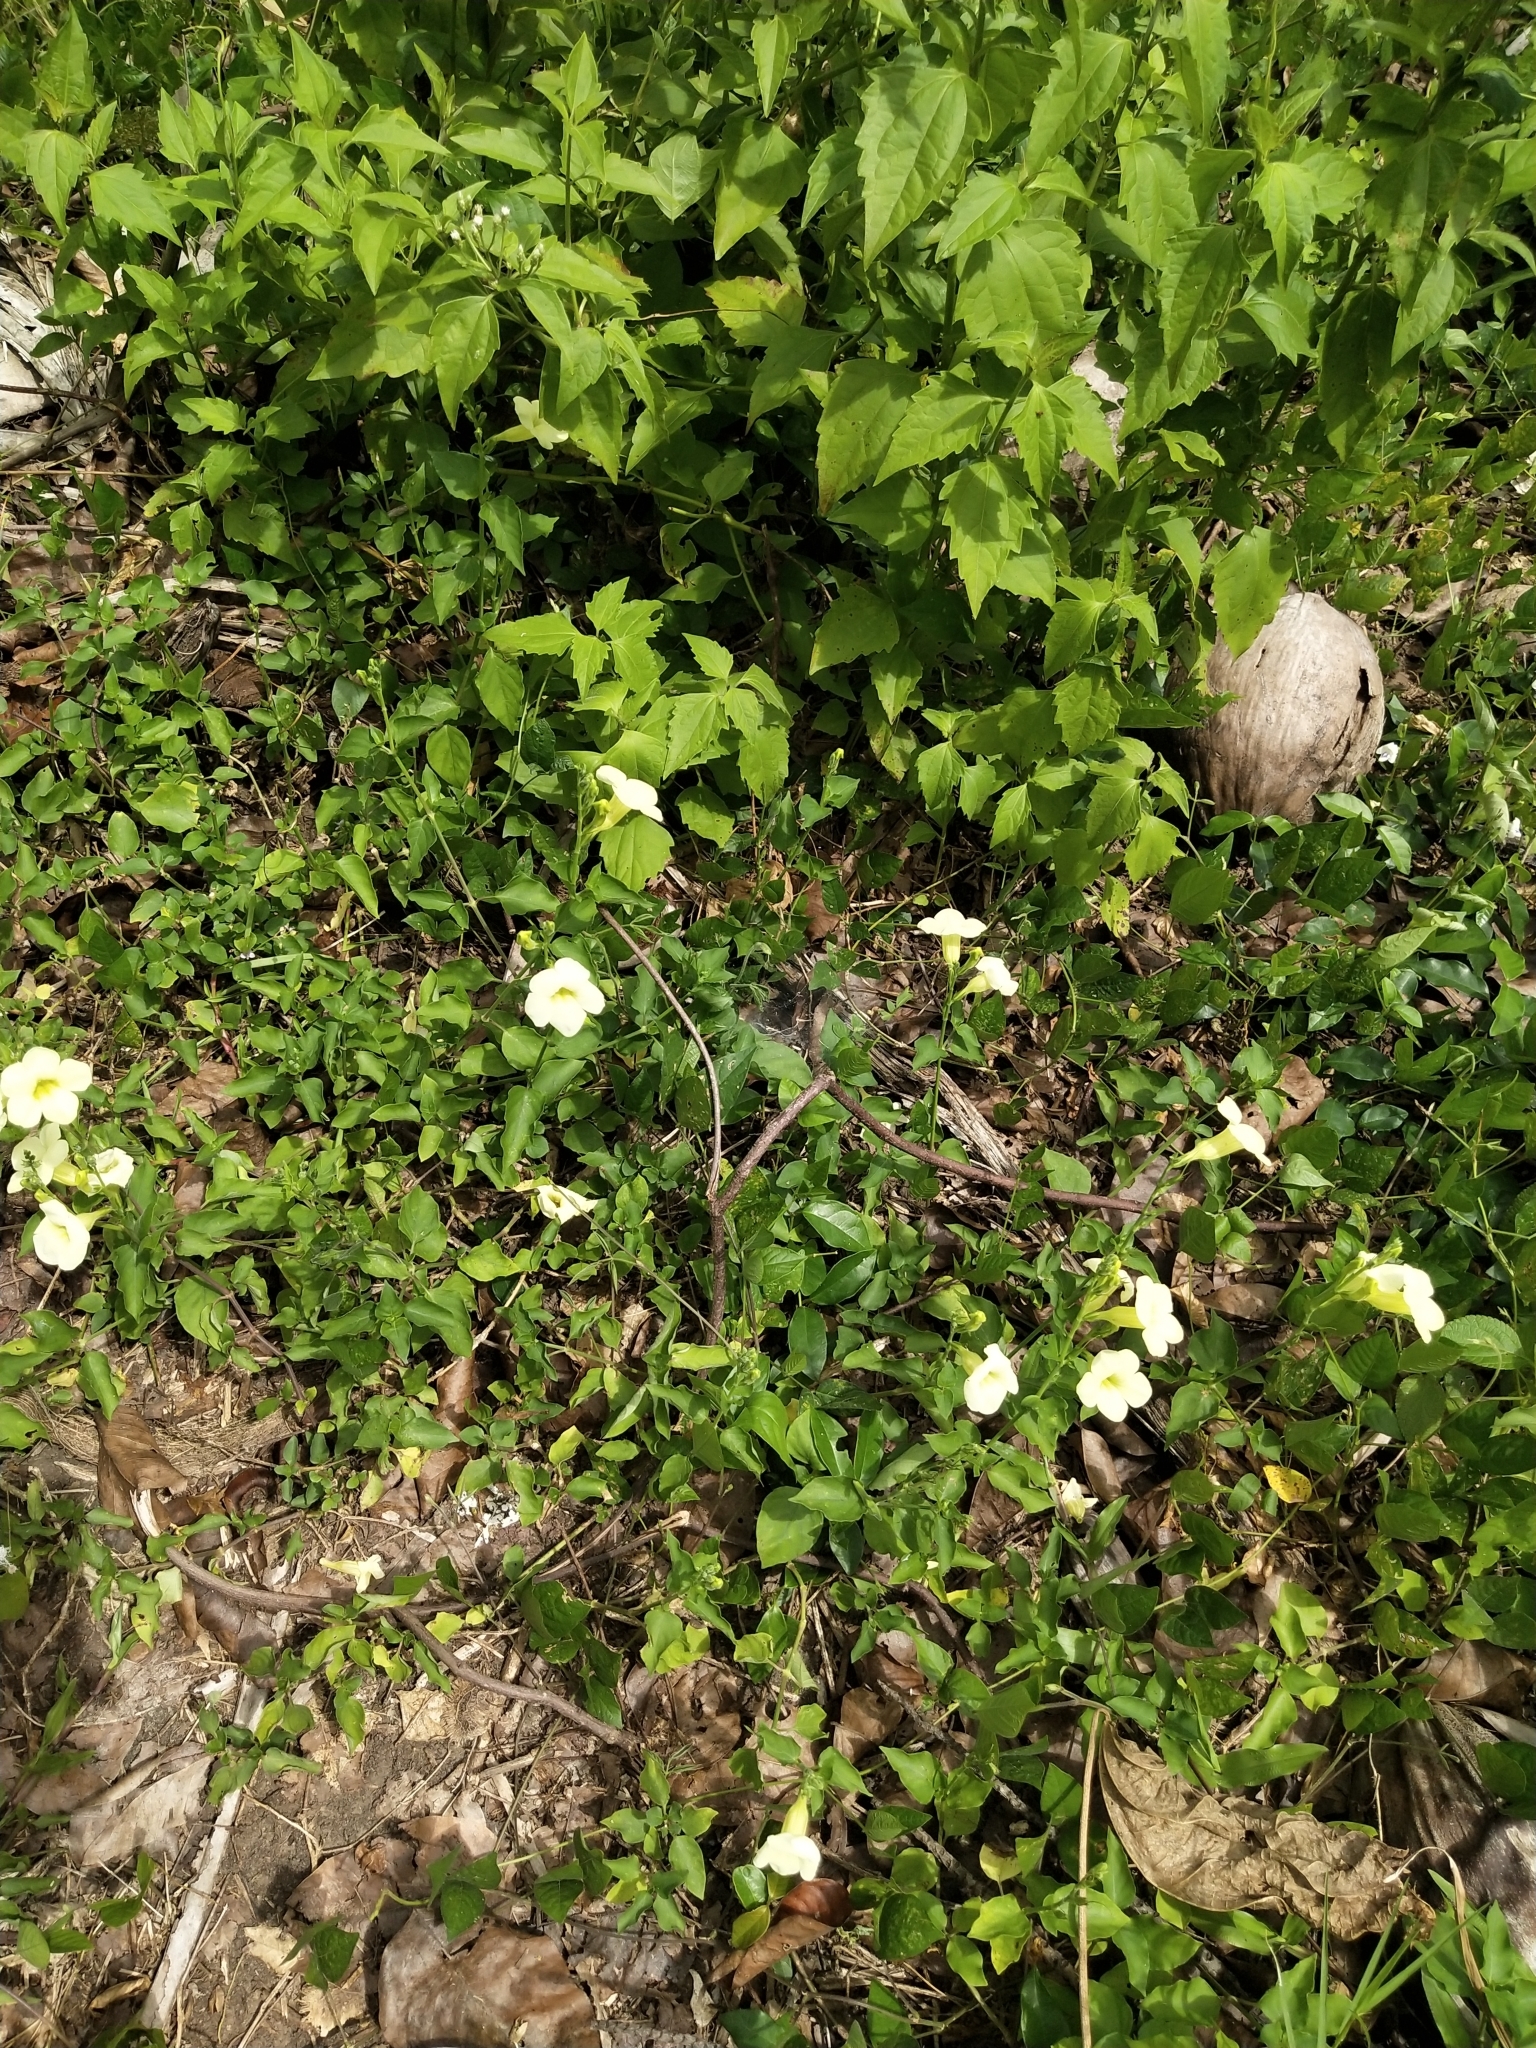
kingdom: Plantae
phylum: Tracheophyta
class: Magnoliopsida
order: Lamiales
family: Acanthaceae
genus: Asystasia
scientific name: Asystasia gangetica
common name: Chinese violet
